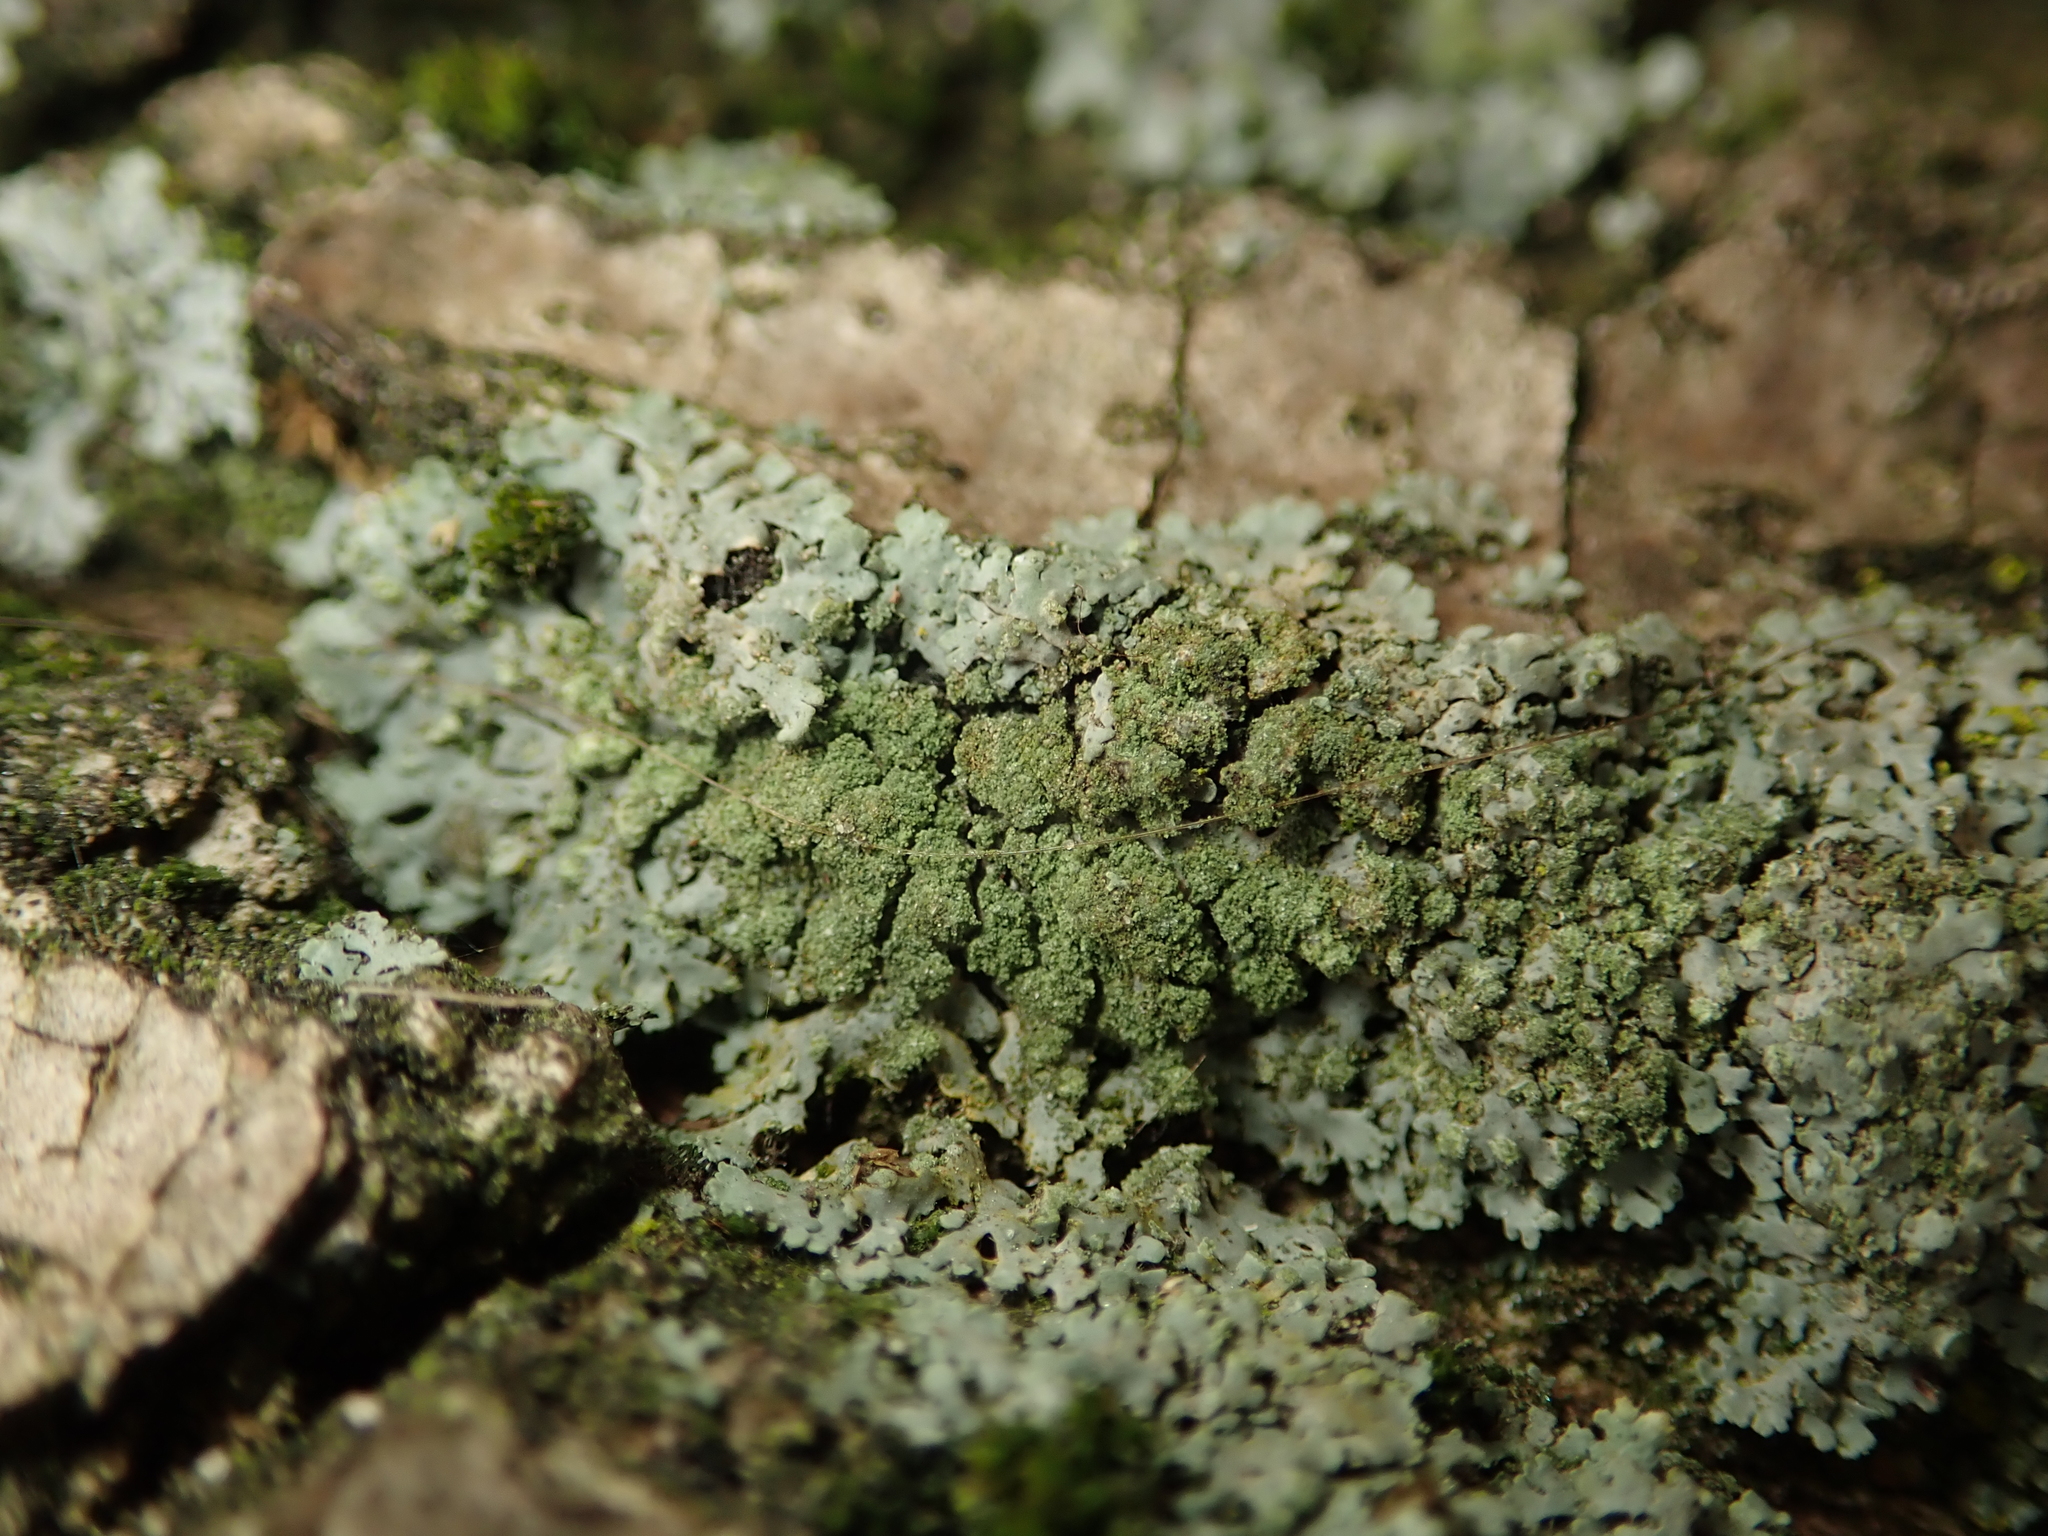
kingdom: Fungi
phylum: Ascomycota
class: Lecanoromycetes
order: Caliciales
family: Physciaceae
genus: Phaeophyscia
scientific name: Phaeophyscia orbicularis
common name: Mealy shadow lichen
